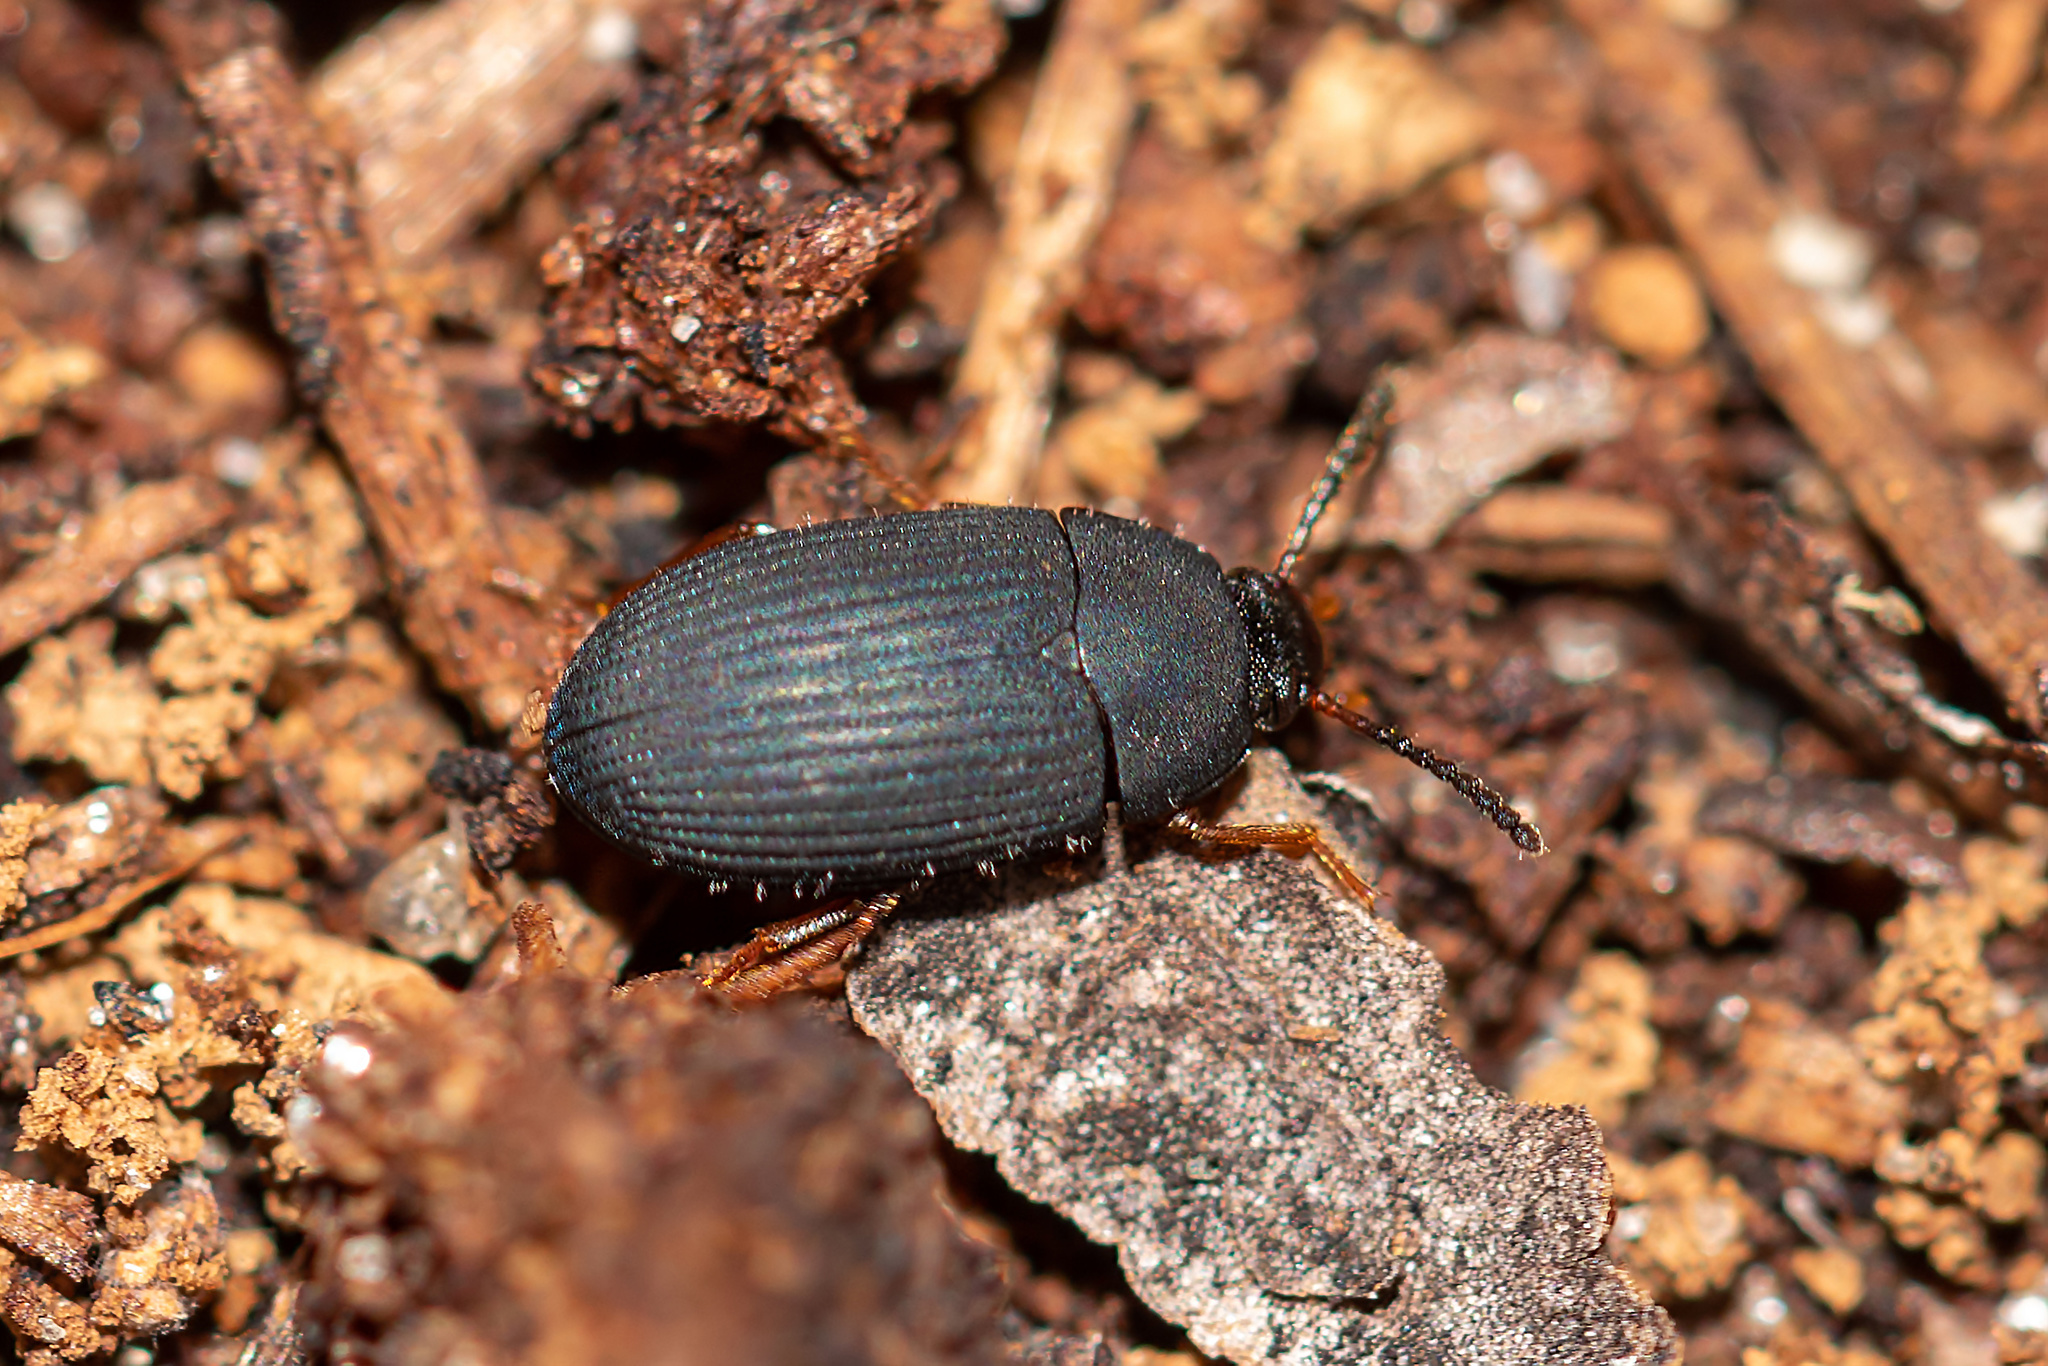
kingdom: Animalia
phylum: Arthropoda
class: Insecta
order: Coleoptera
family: Tenebrionidae
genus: Platydema
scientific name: Platydema flavipes
